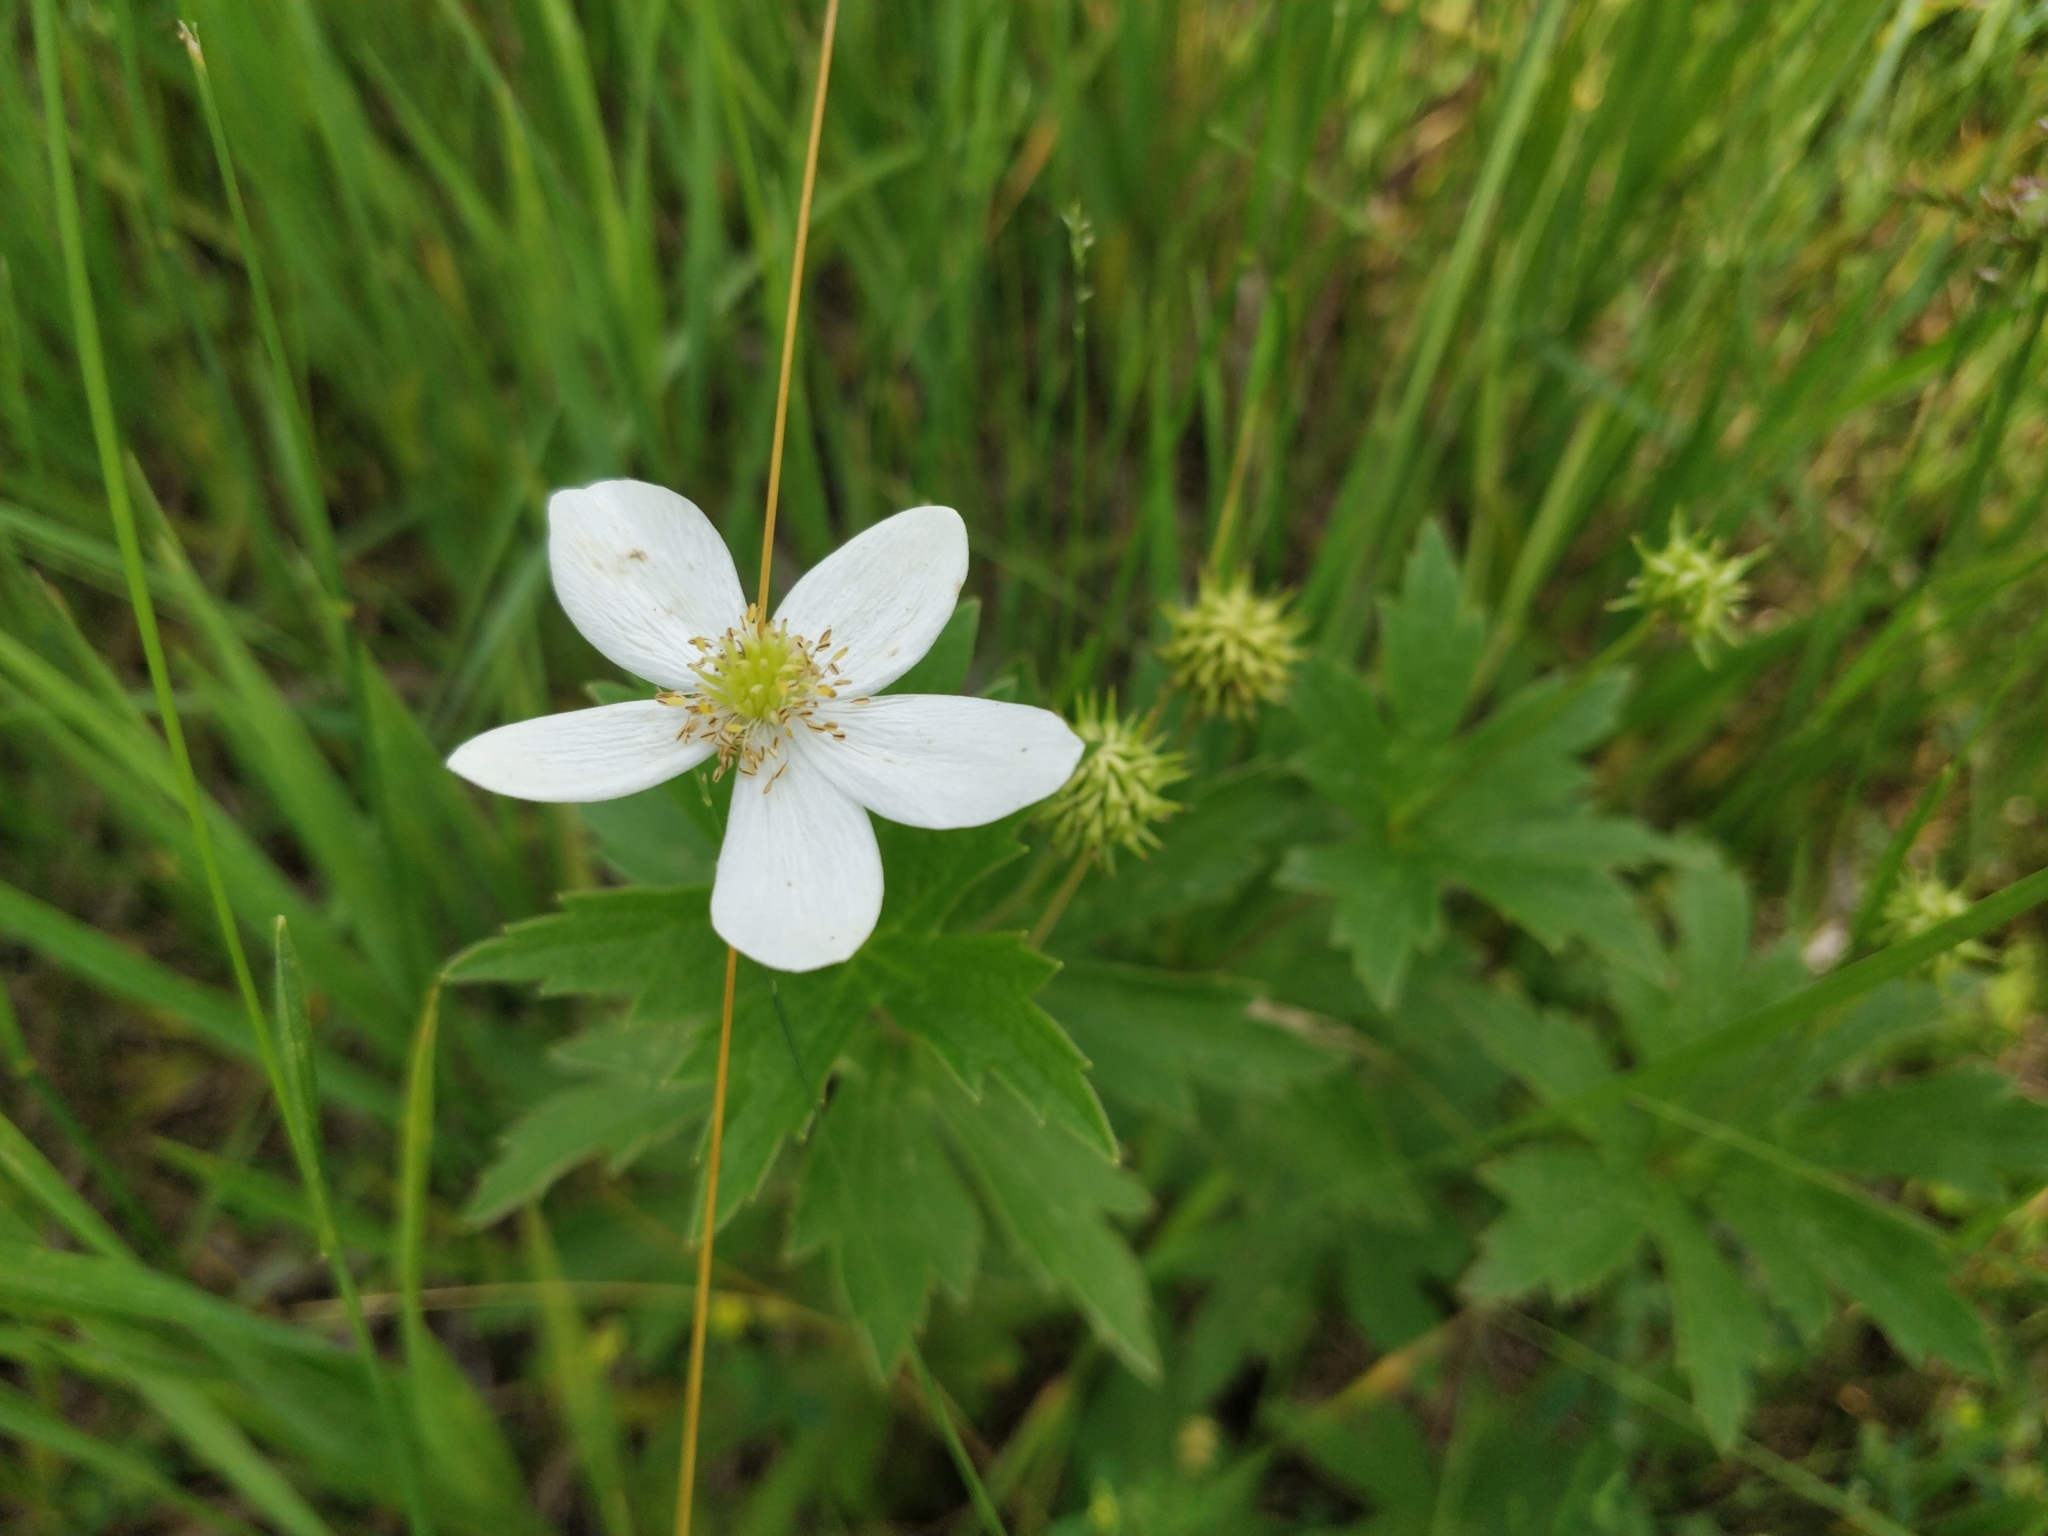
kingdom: Plantae
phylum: Tracheophyta
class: Magnoliopsida
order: Ranunculales
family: Ranunculaceae
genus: Anemonastrum
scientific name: Anemonastrum canadense
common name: Canada anemone
